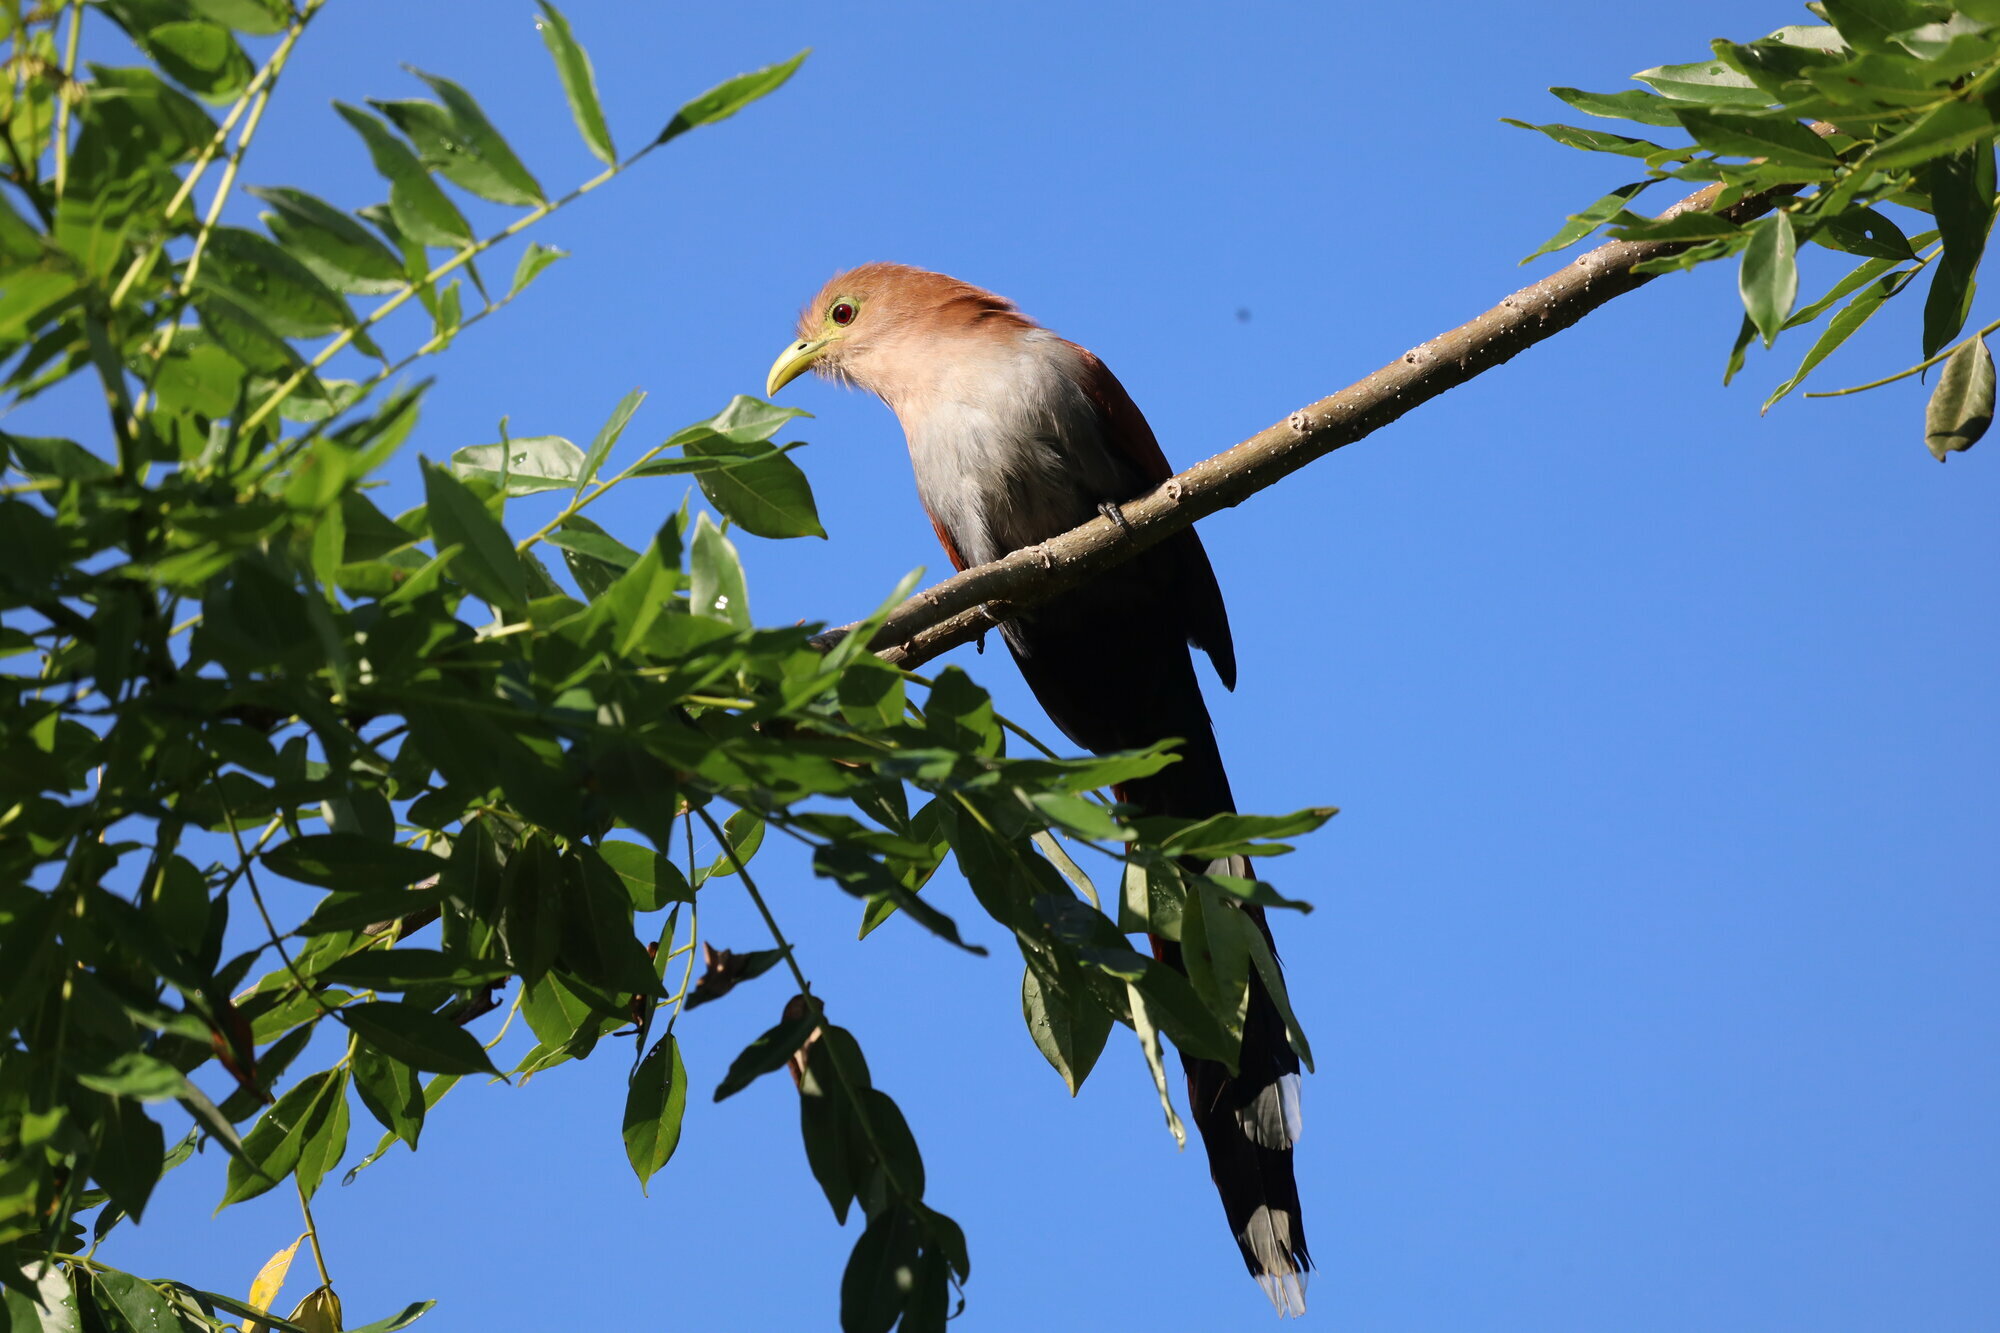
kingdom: Animalia
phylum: Chordata
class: Aves
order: Cuculiformes
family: Cuculidae
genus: Piaya
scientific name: Piaya cayana
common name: Squirrel cuckoo
